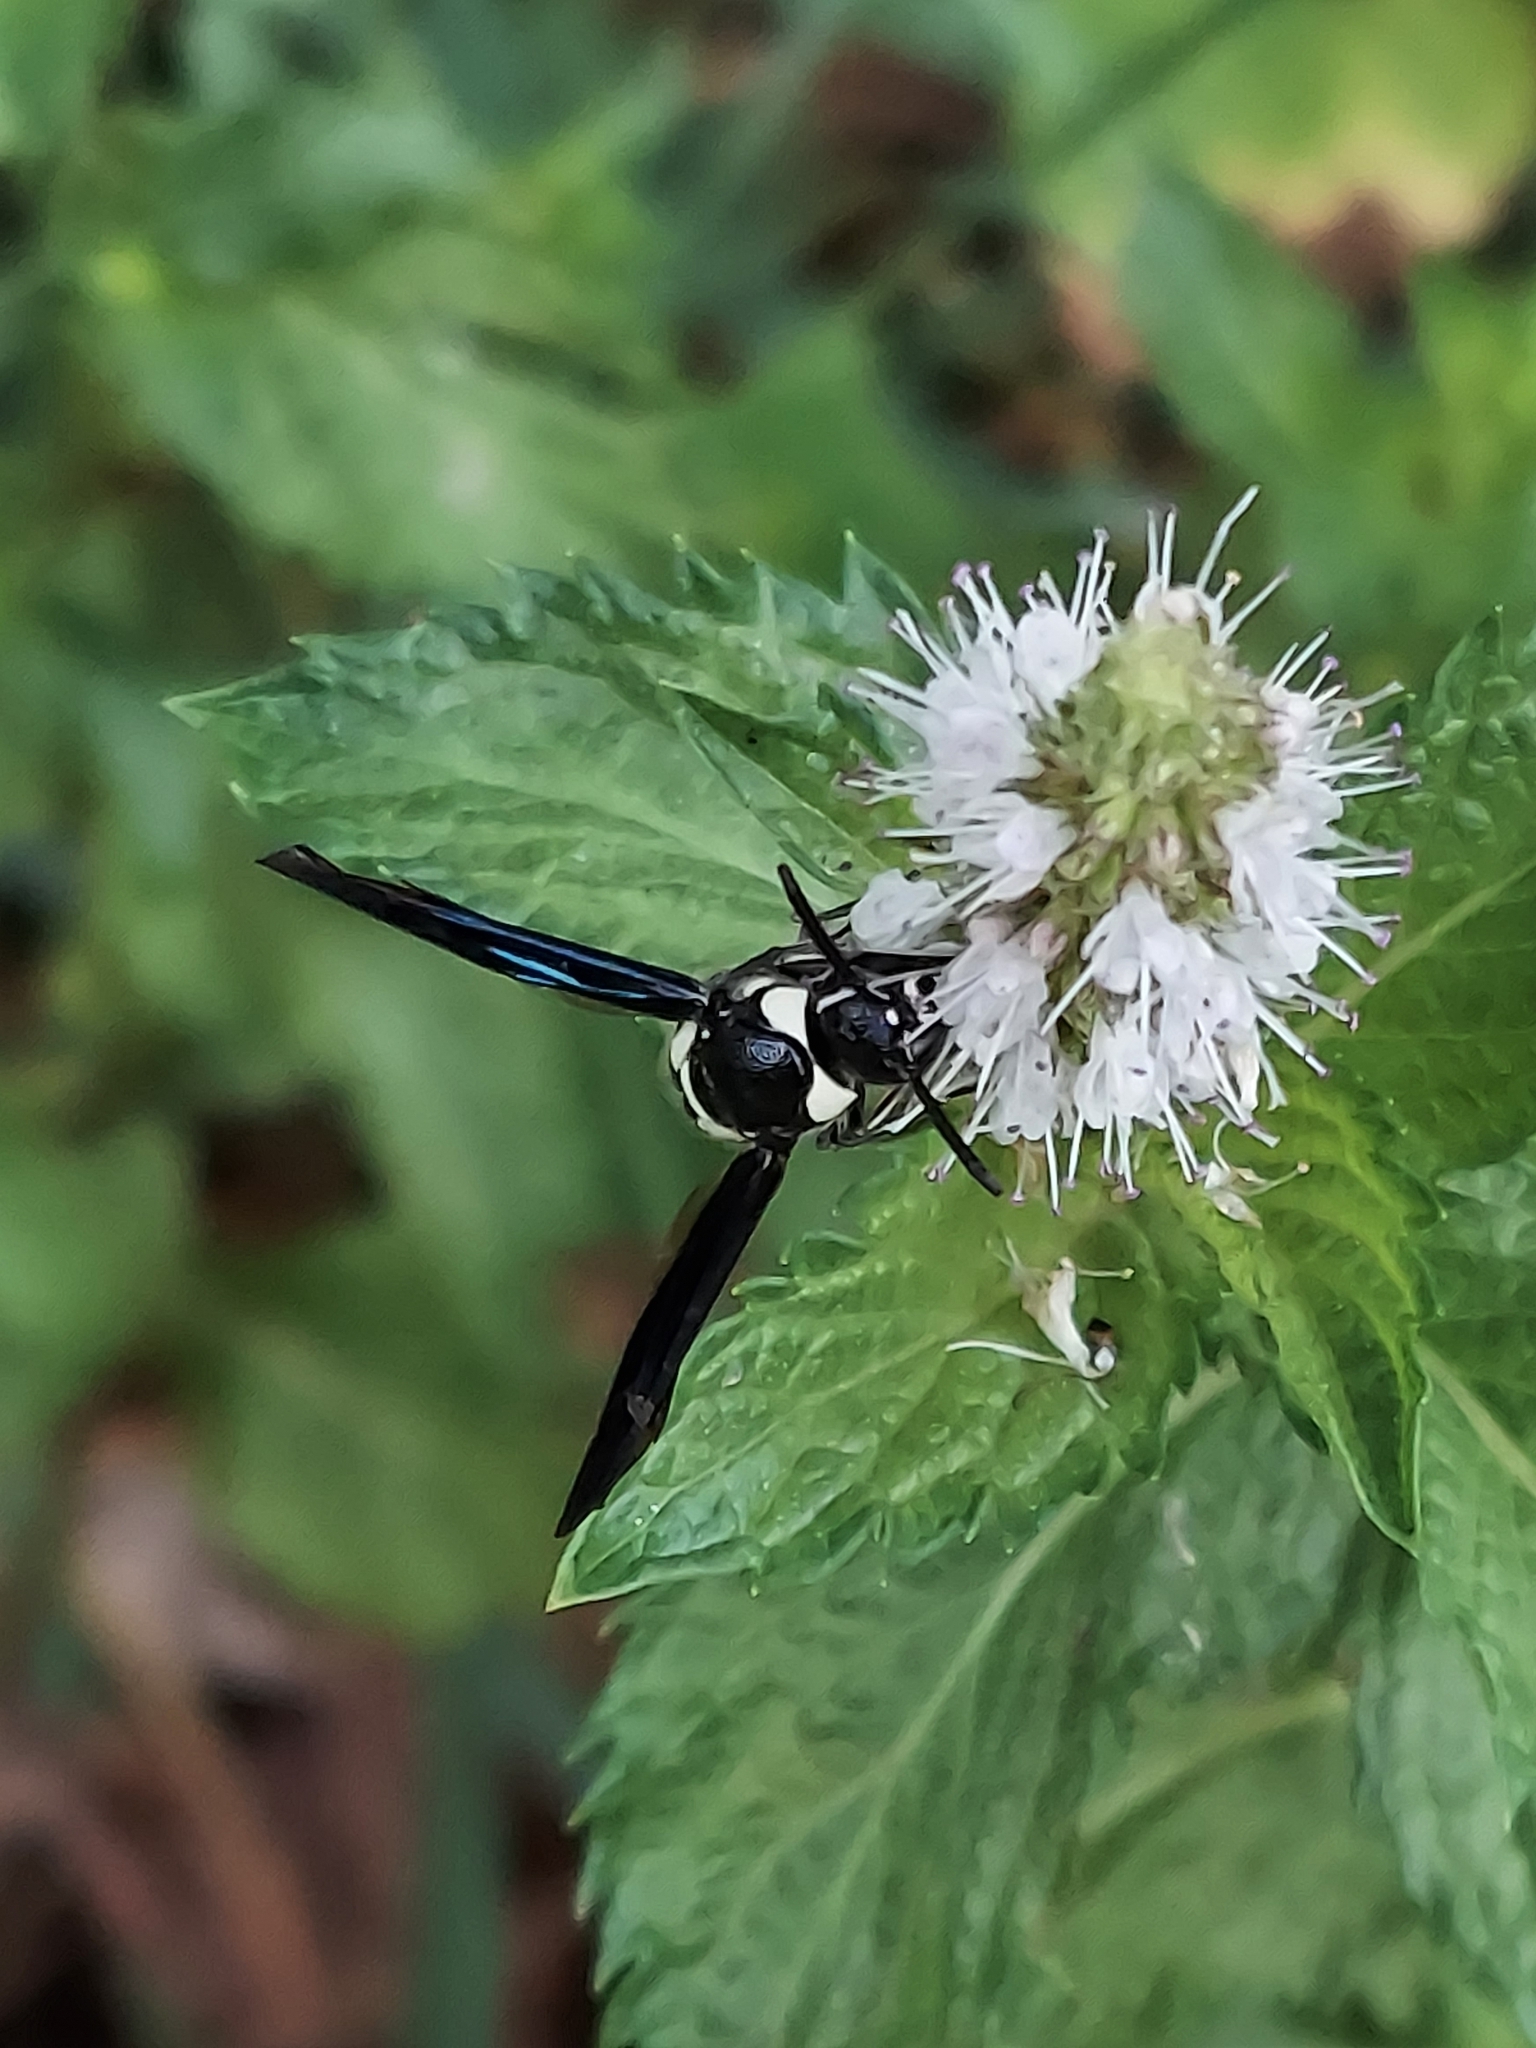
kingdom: Animalia
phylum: Arthropoda
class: Insecta
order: Hymenoptera
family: Eumenidae
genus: Pseudodynerus
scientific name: Pseudodynerus quadrisectus
